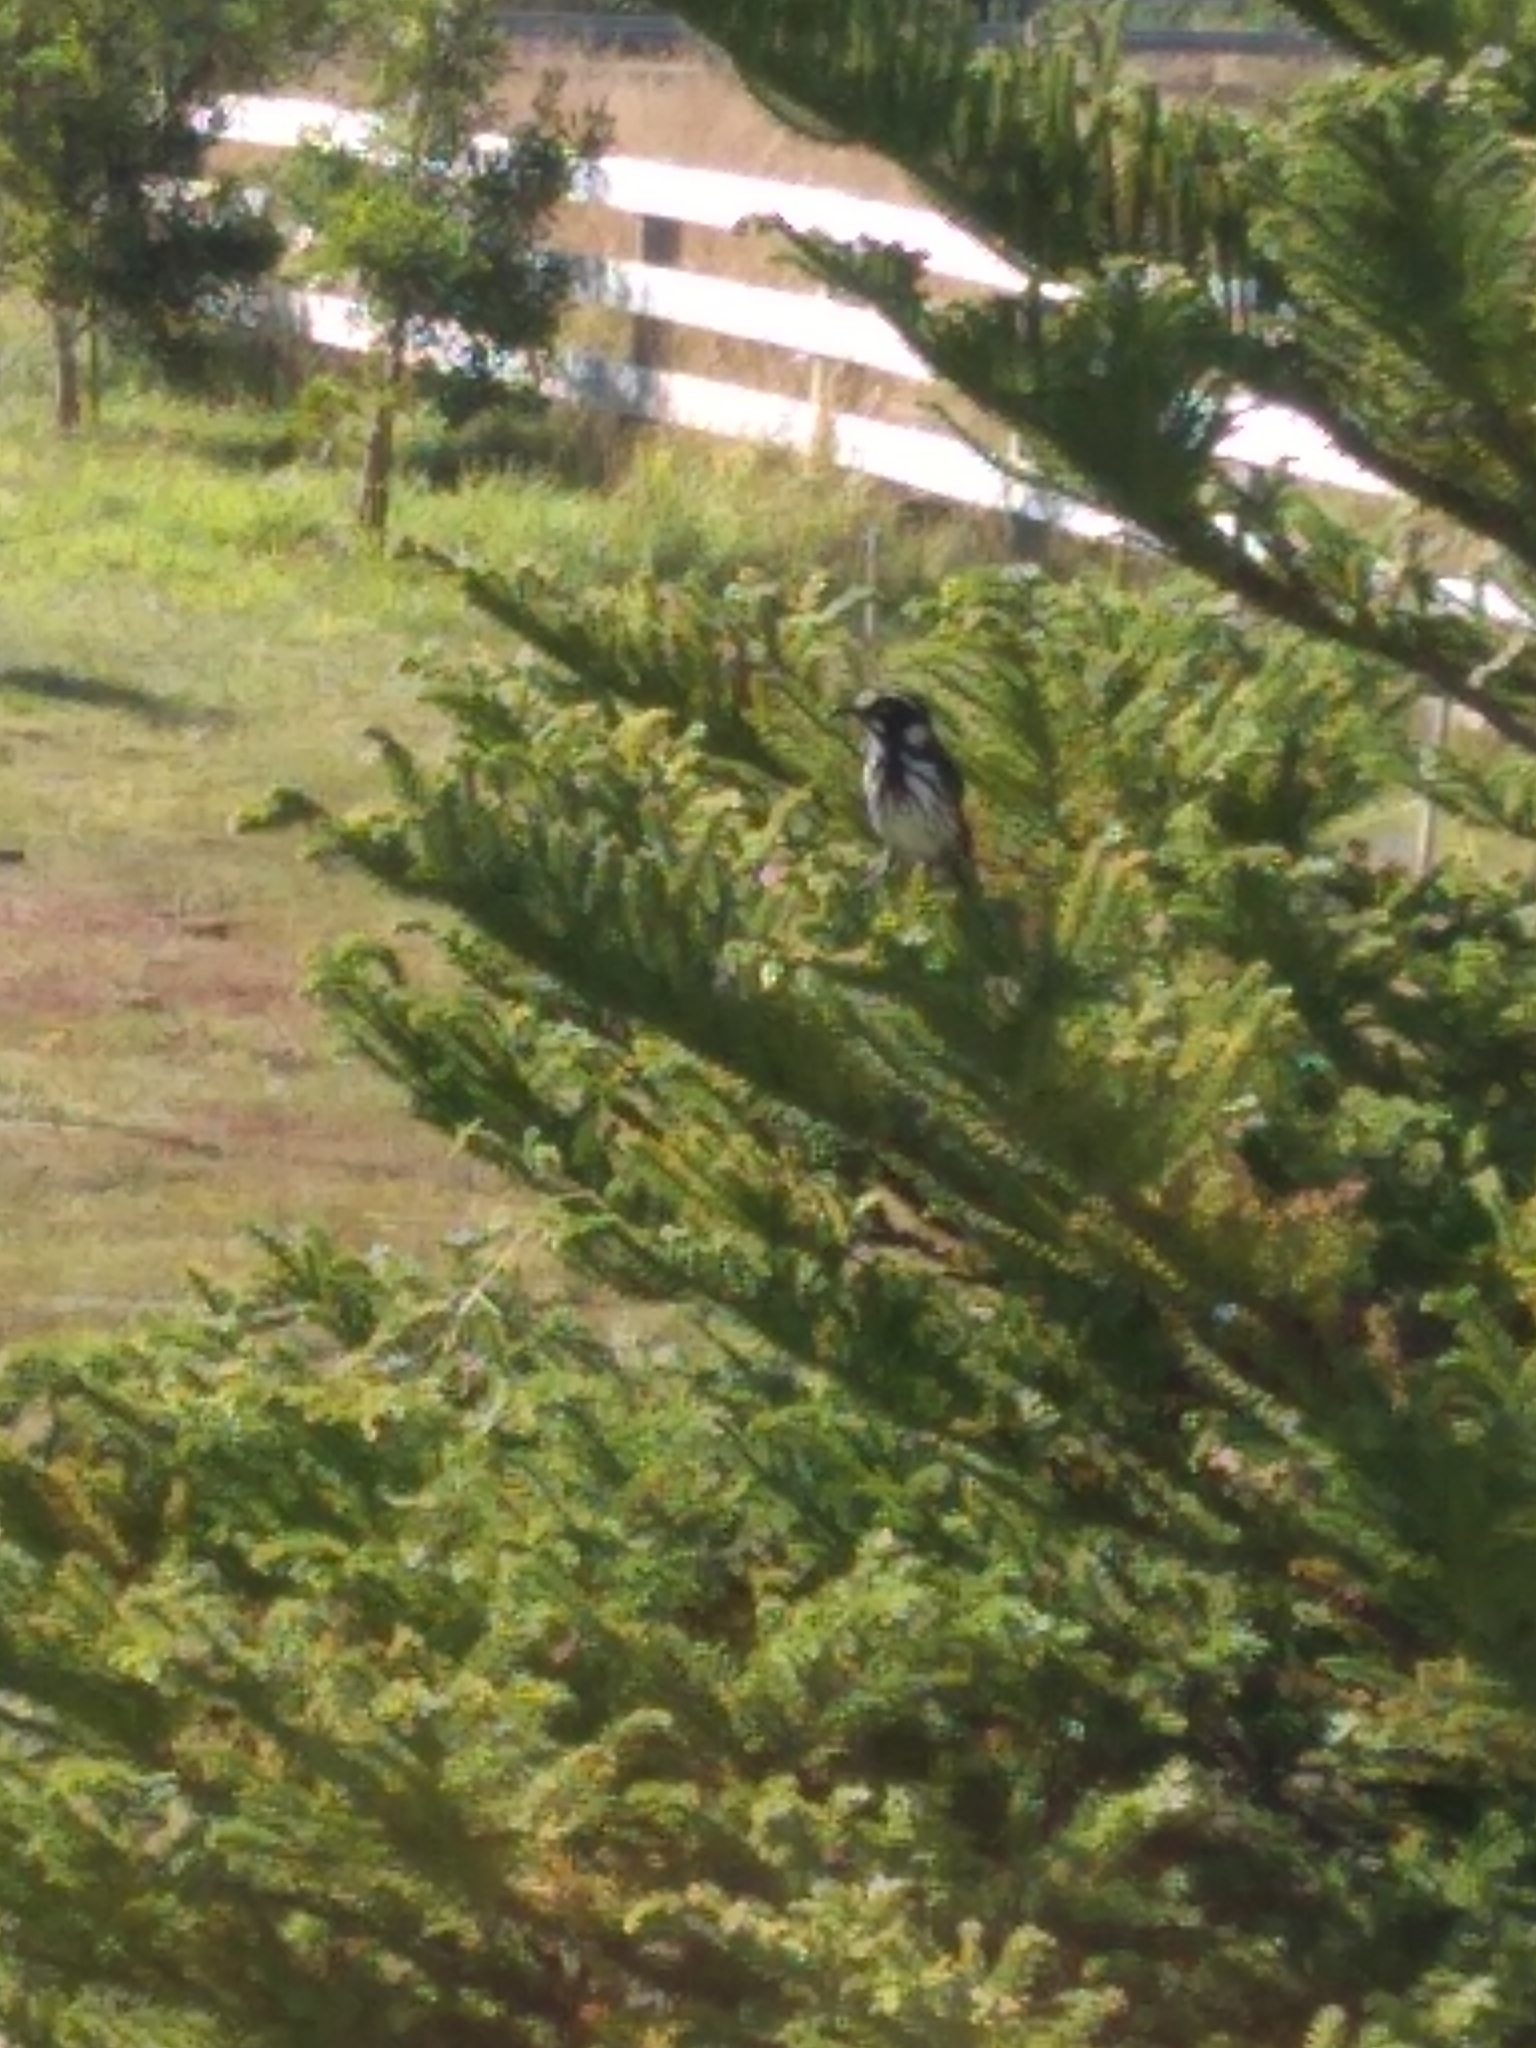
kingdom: Animalia
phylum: Chordata
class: Aves
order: Passeriformes
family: Meliphagidae
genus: Phylidonyris
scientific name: Phylidonyris novaehollandiae
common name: New holland honeyeater
